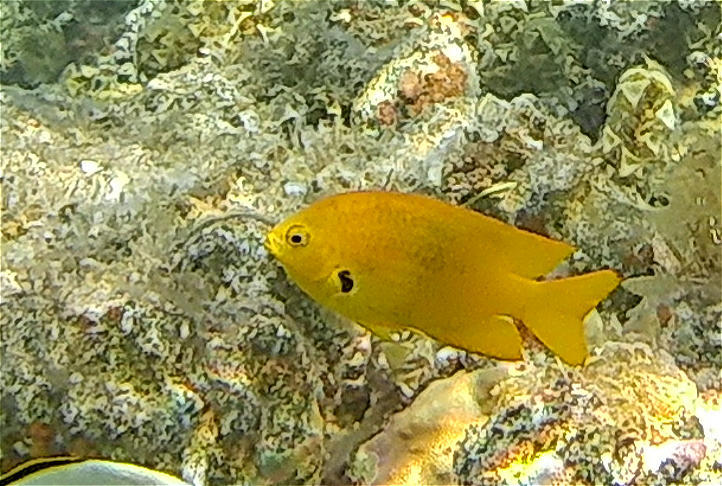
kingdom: Animalia
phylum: Chordata
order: Perciformes
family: Pomacentridae
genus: Pomacentrus
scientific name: Pomacentrus sulfureus
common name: Sulfur damsel
